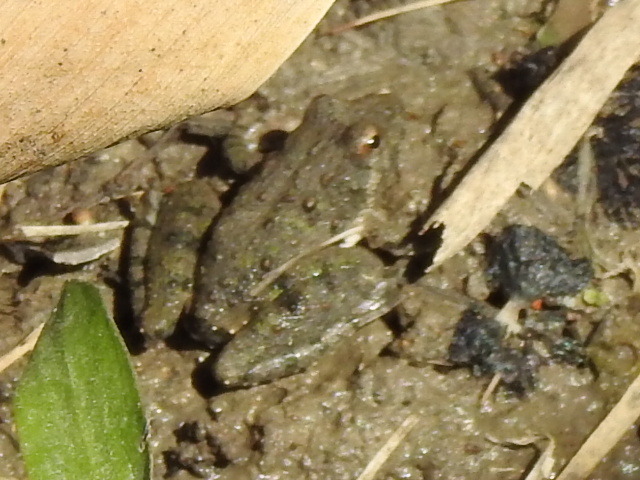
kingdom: Animalia
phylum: Chordata
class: Amphibia
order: Anura
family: Hylidae
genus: Acris
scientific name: Acris blanchardi
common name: Blanchard's cricket frog
